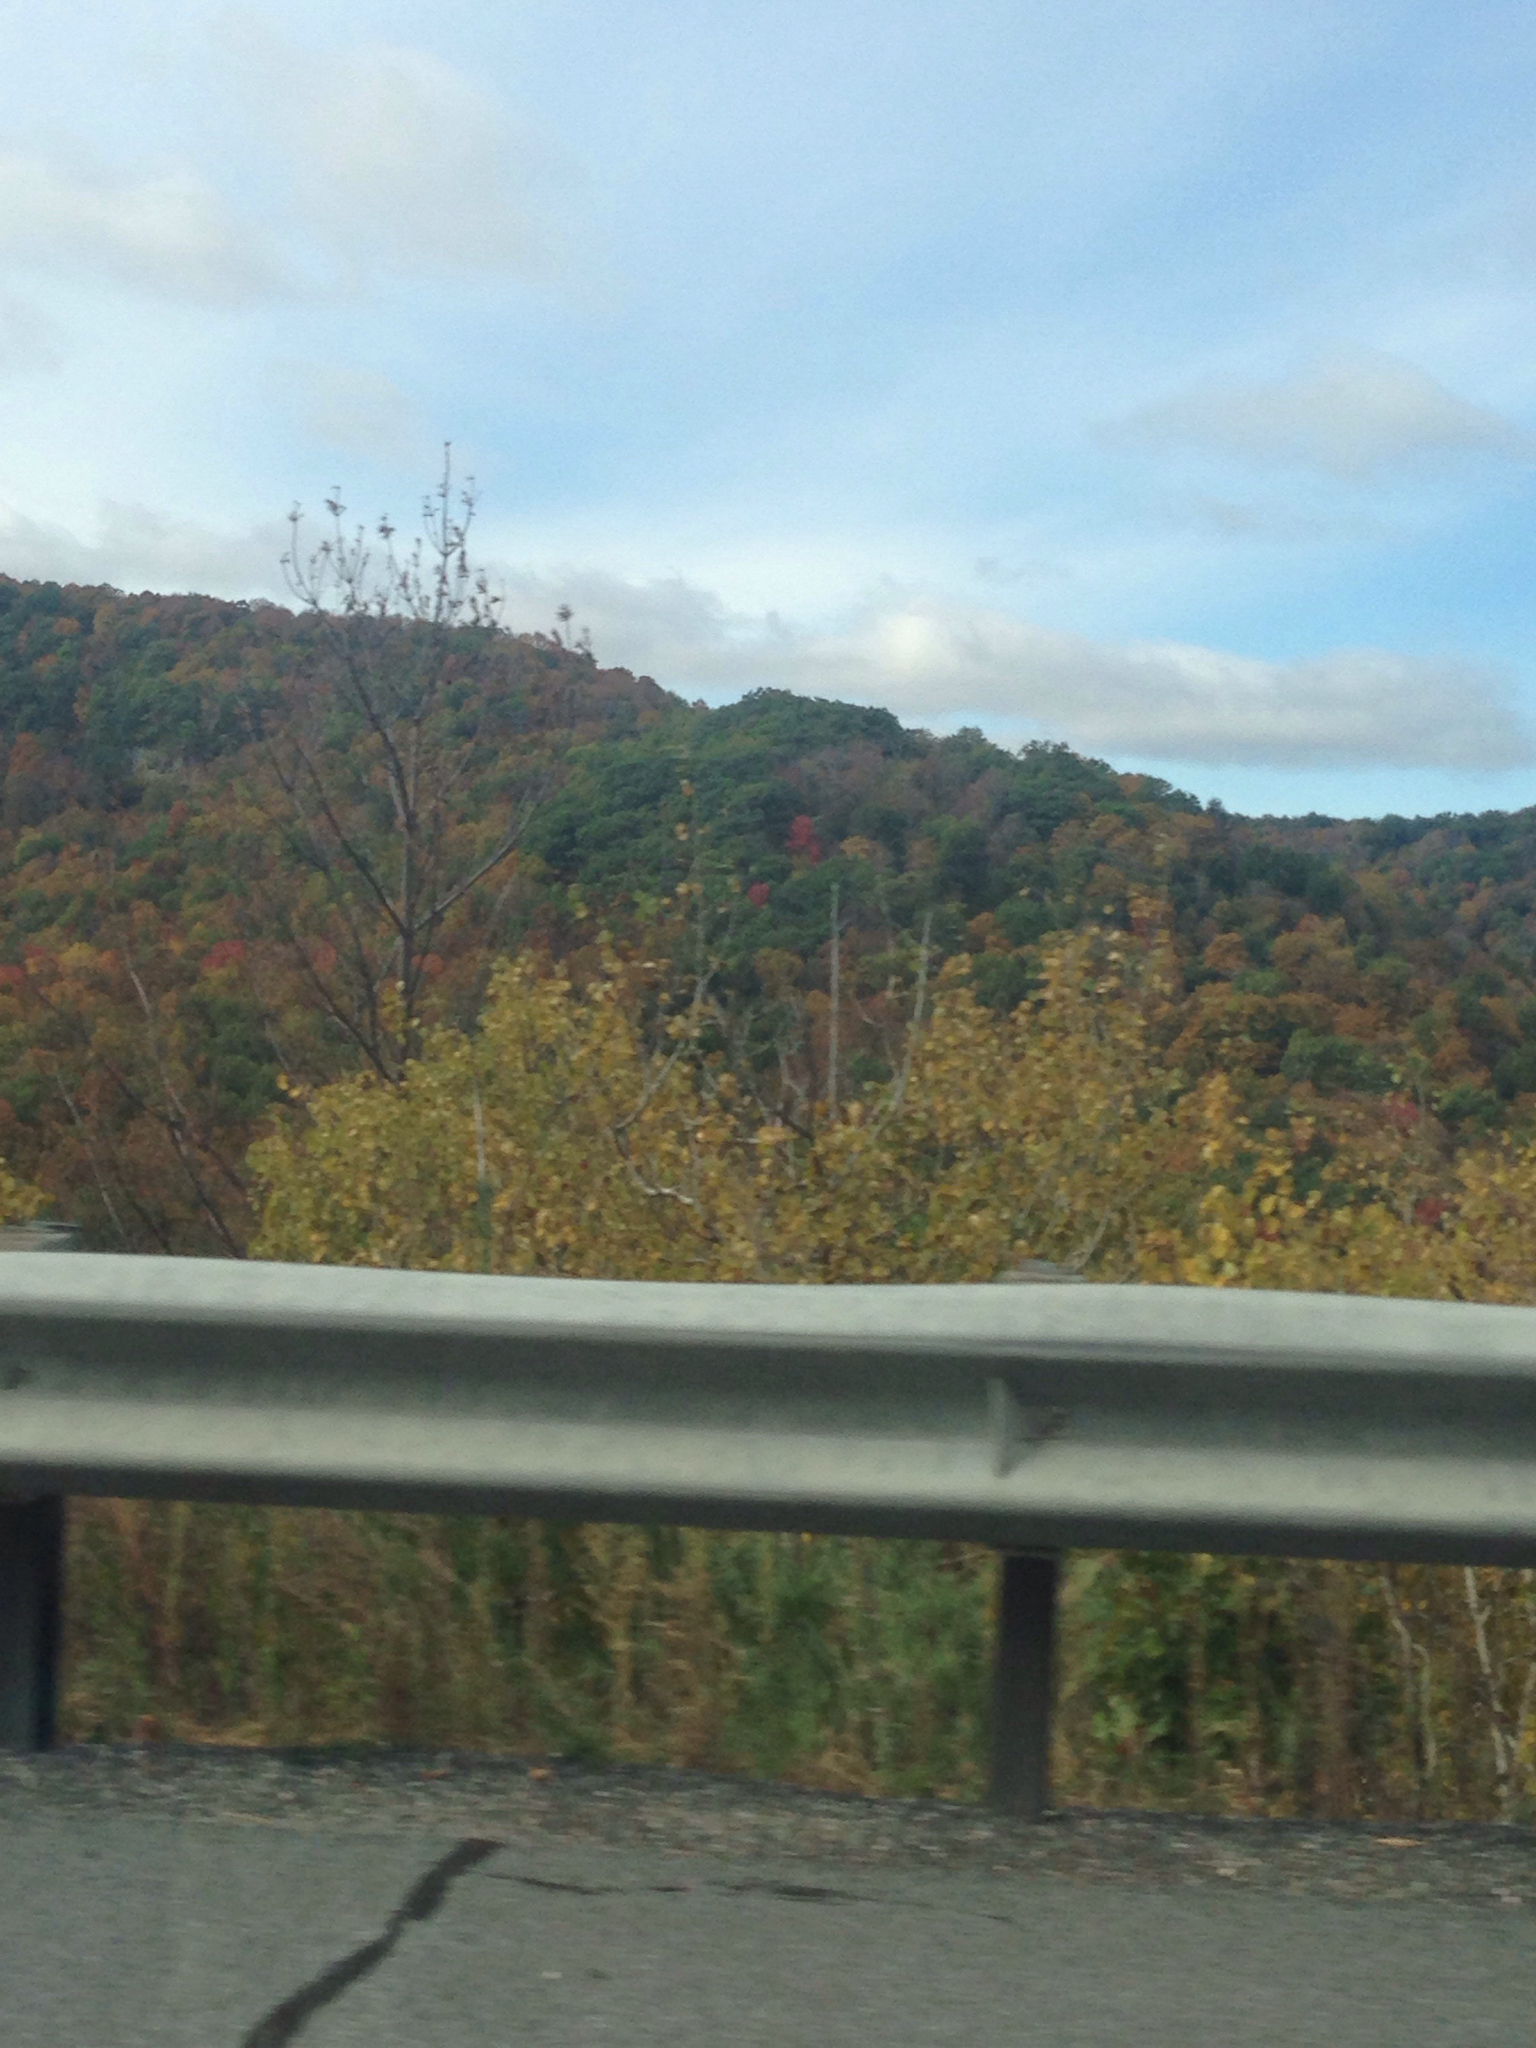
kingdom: Plantae
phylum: Tracheophyta
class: Magnoliopsida
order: Fagales
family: Fagaceae
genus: Quercus
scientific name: Quercus rubra
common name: Red oak
